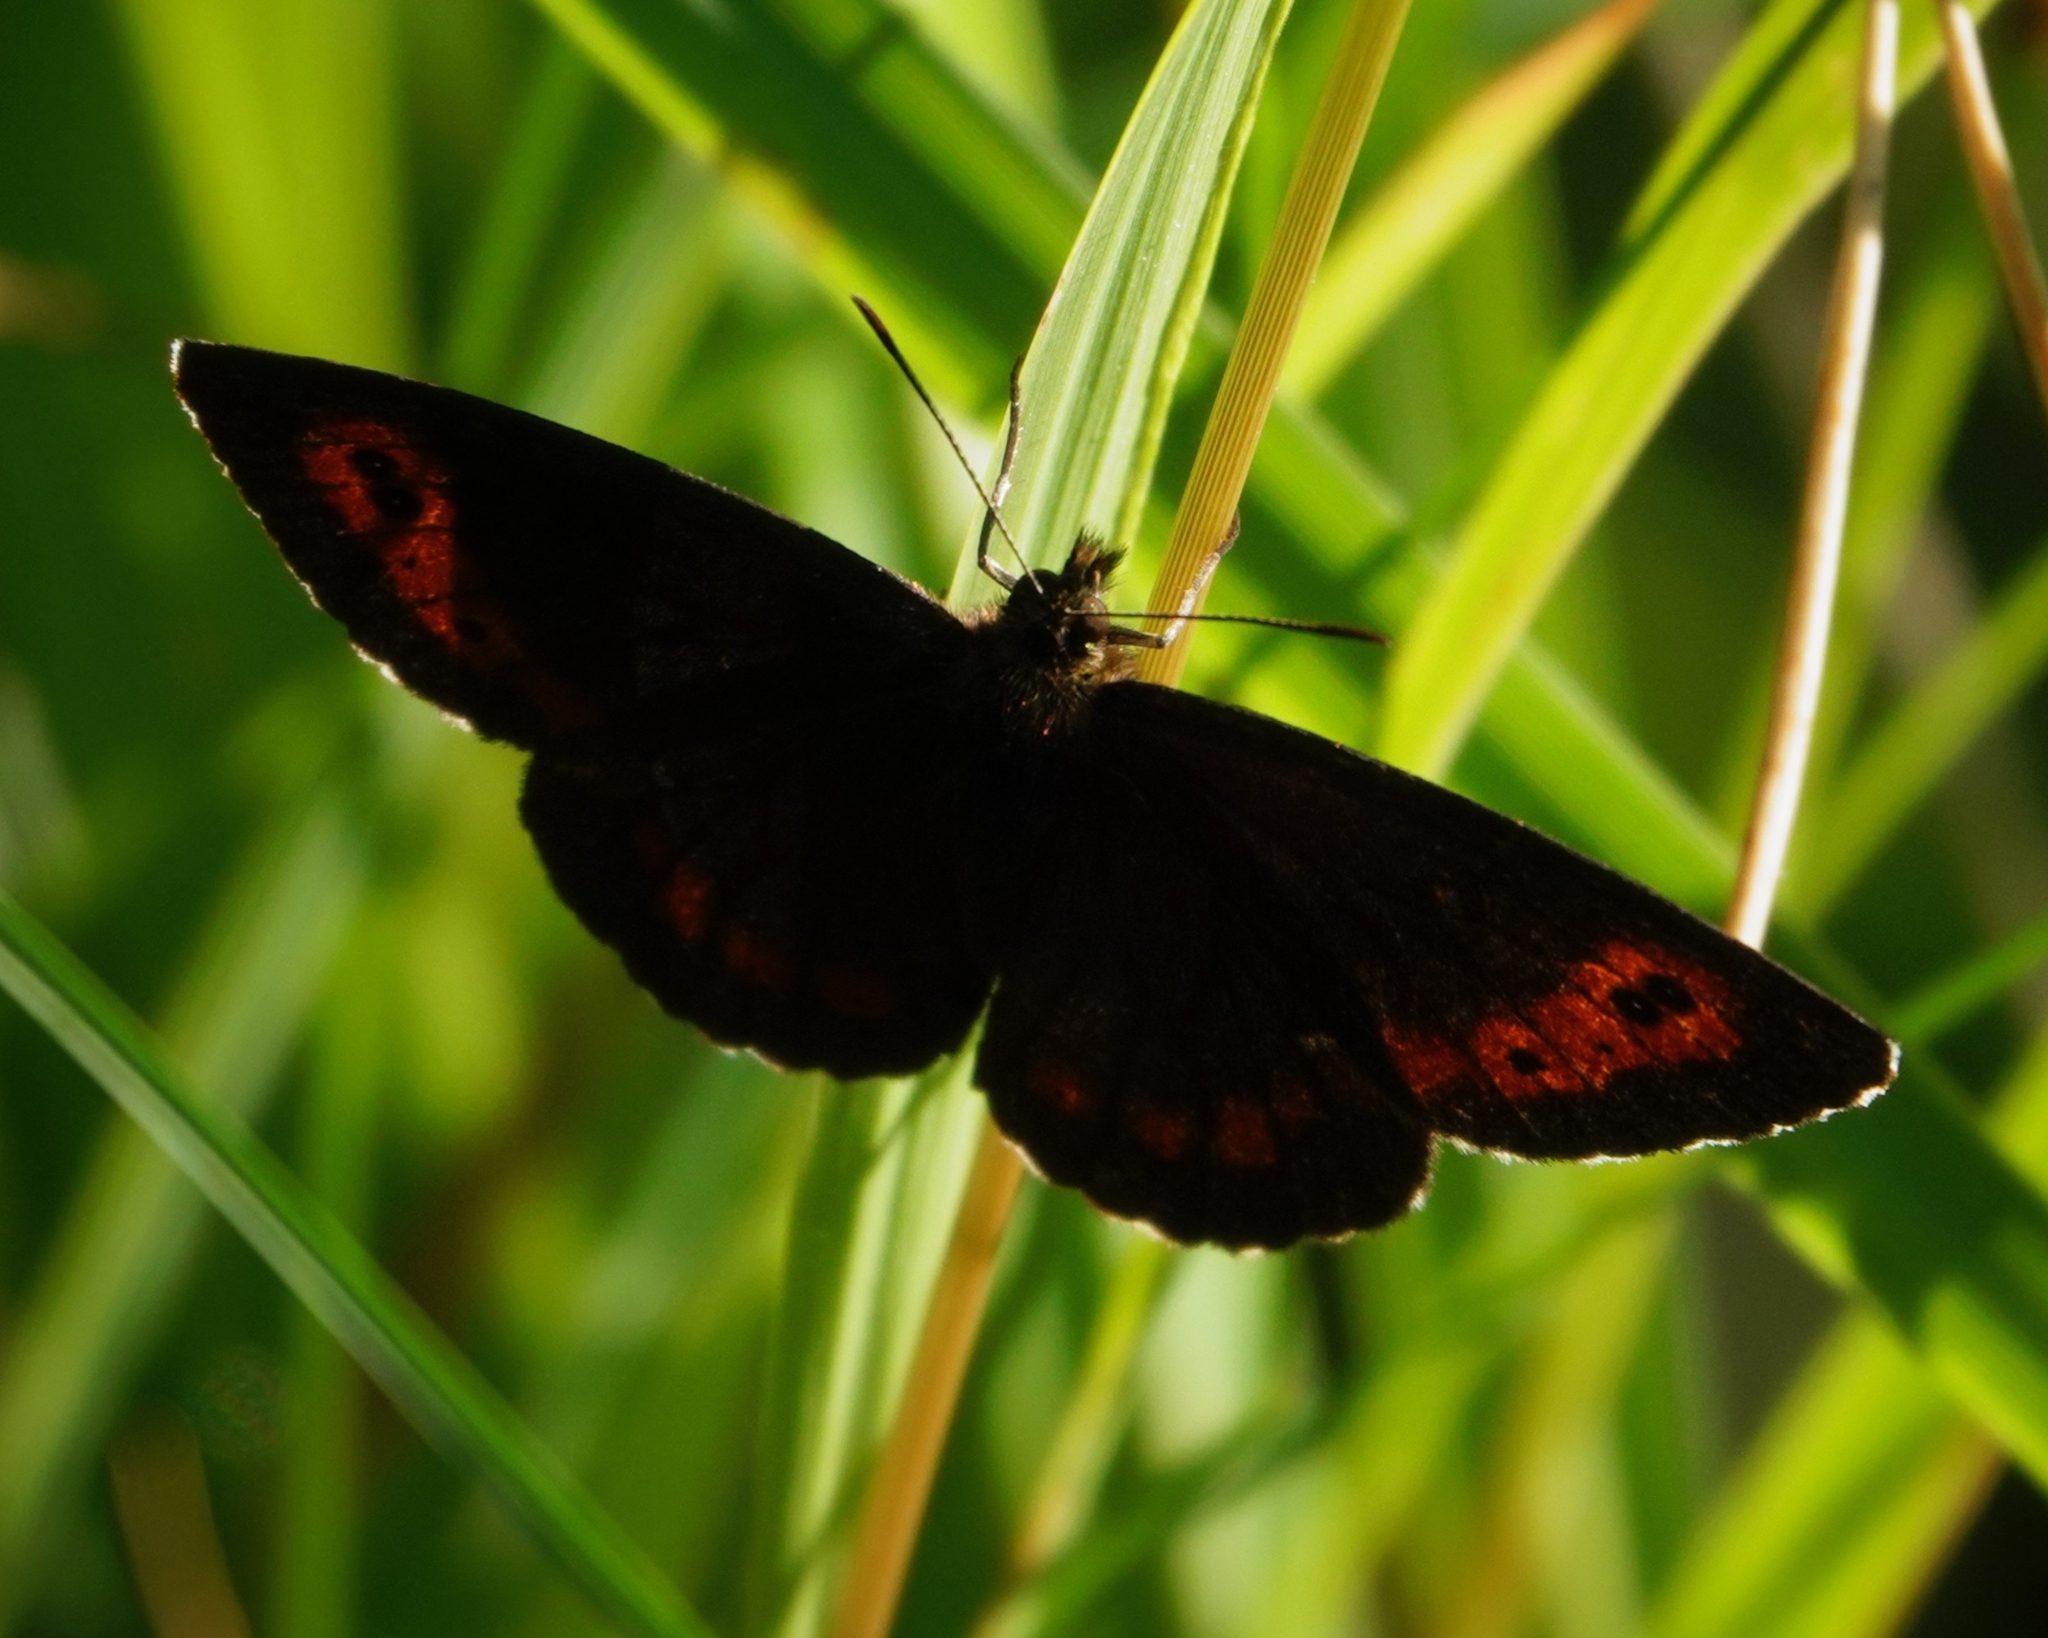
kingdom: Animalia
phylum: Arthropoda
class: Insecta
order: Lepidoptera
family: Nymphalidae
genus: Erebia
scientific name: Erebia ligea
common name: Arran brown
